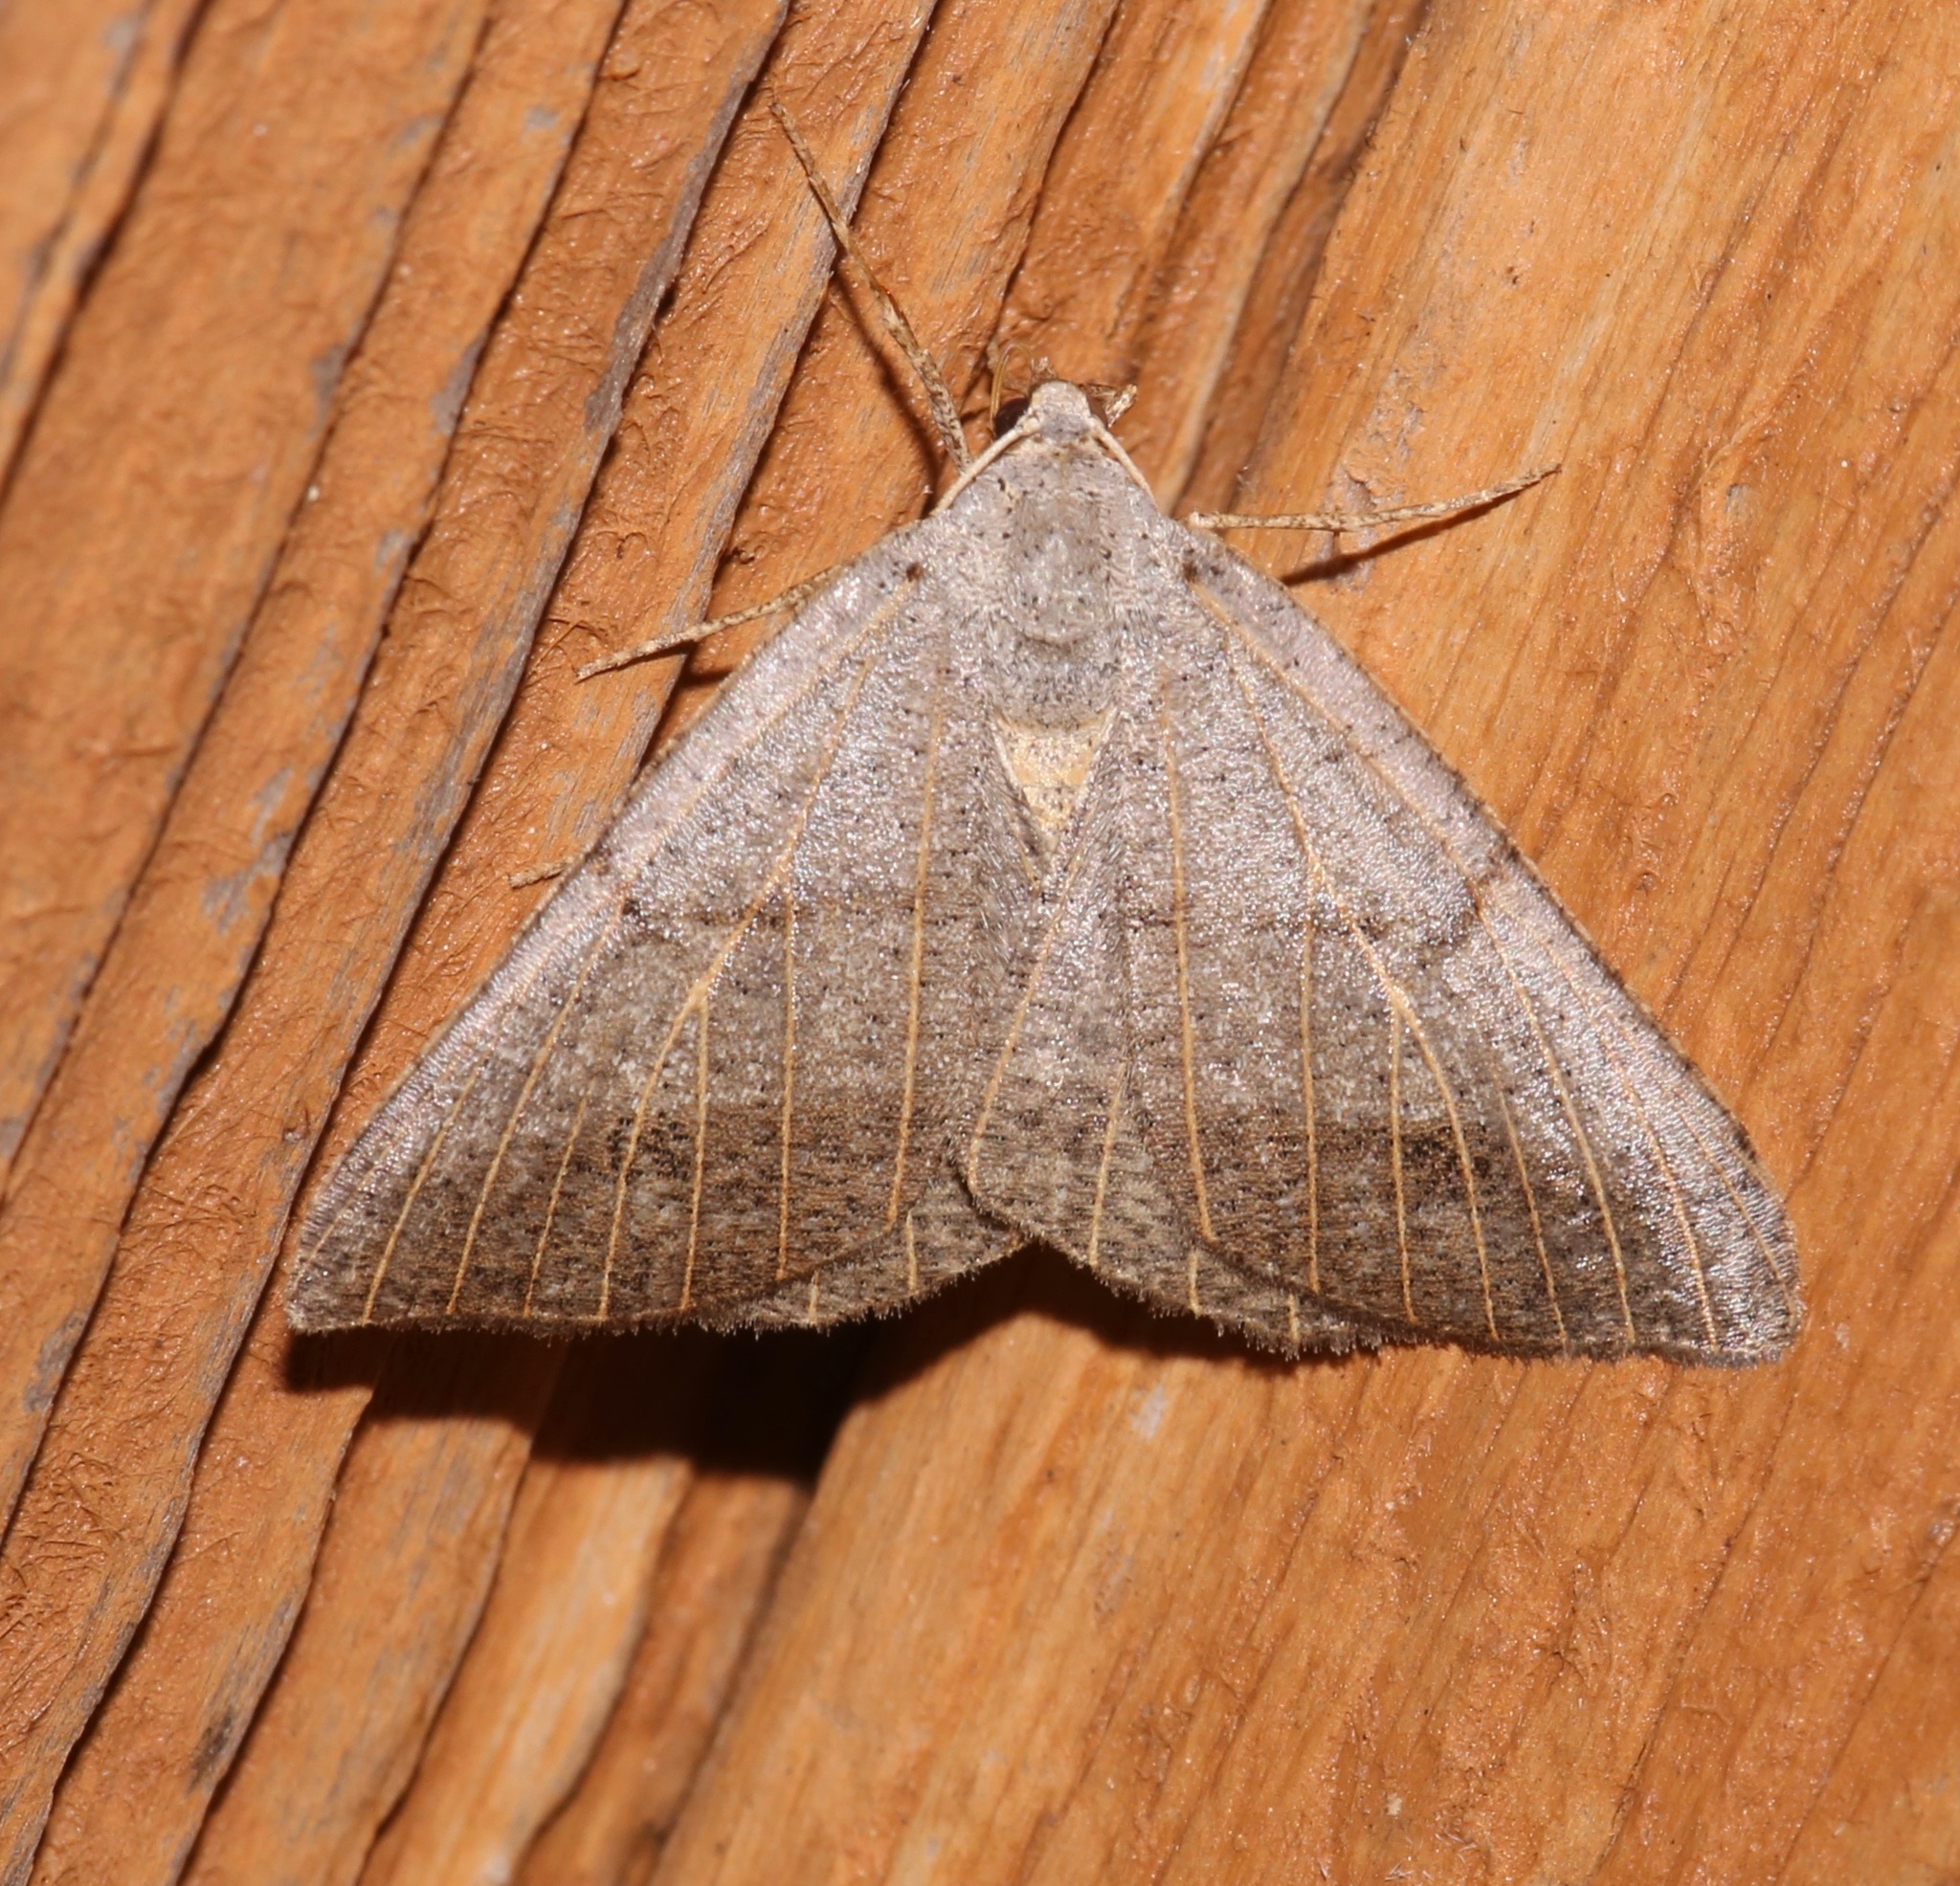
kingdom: Animalia
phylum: Arthropoda
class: Insecta
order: Lepidoptera
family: Geometridae
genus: Isturgia
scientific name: Isturgia dislocaria
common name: Pale-viened enconista
